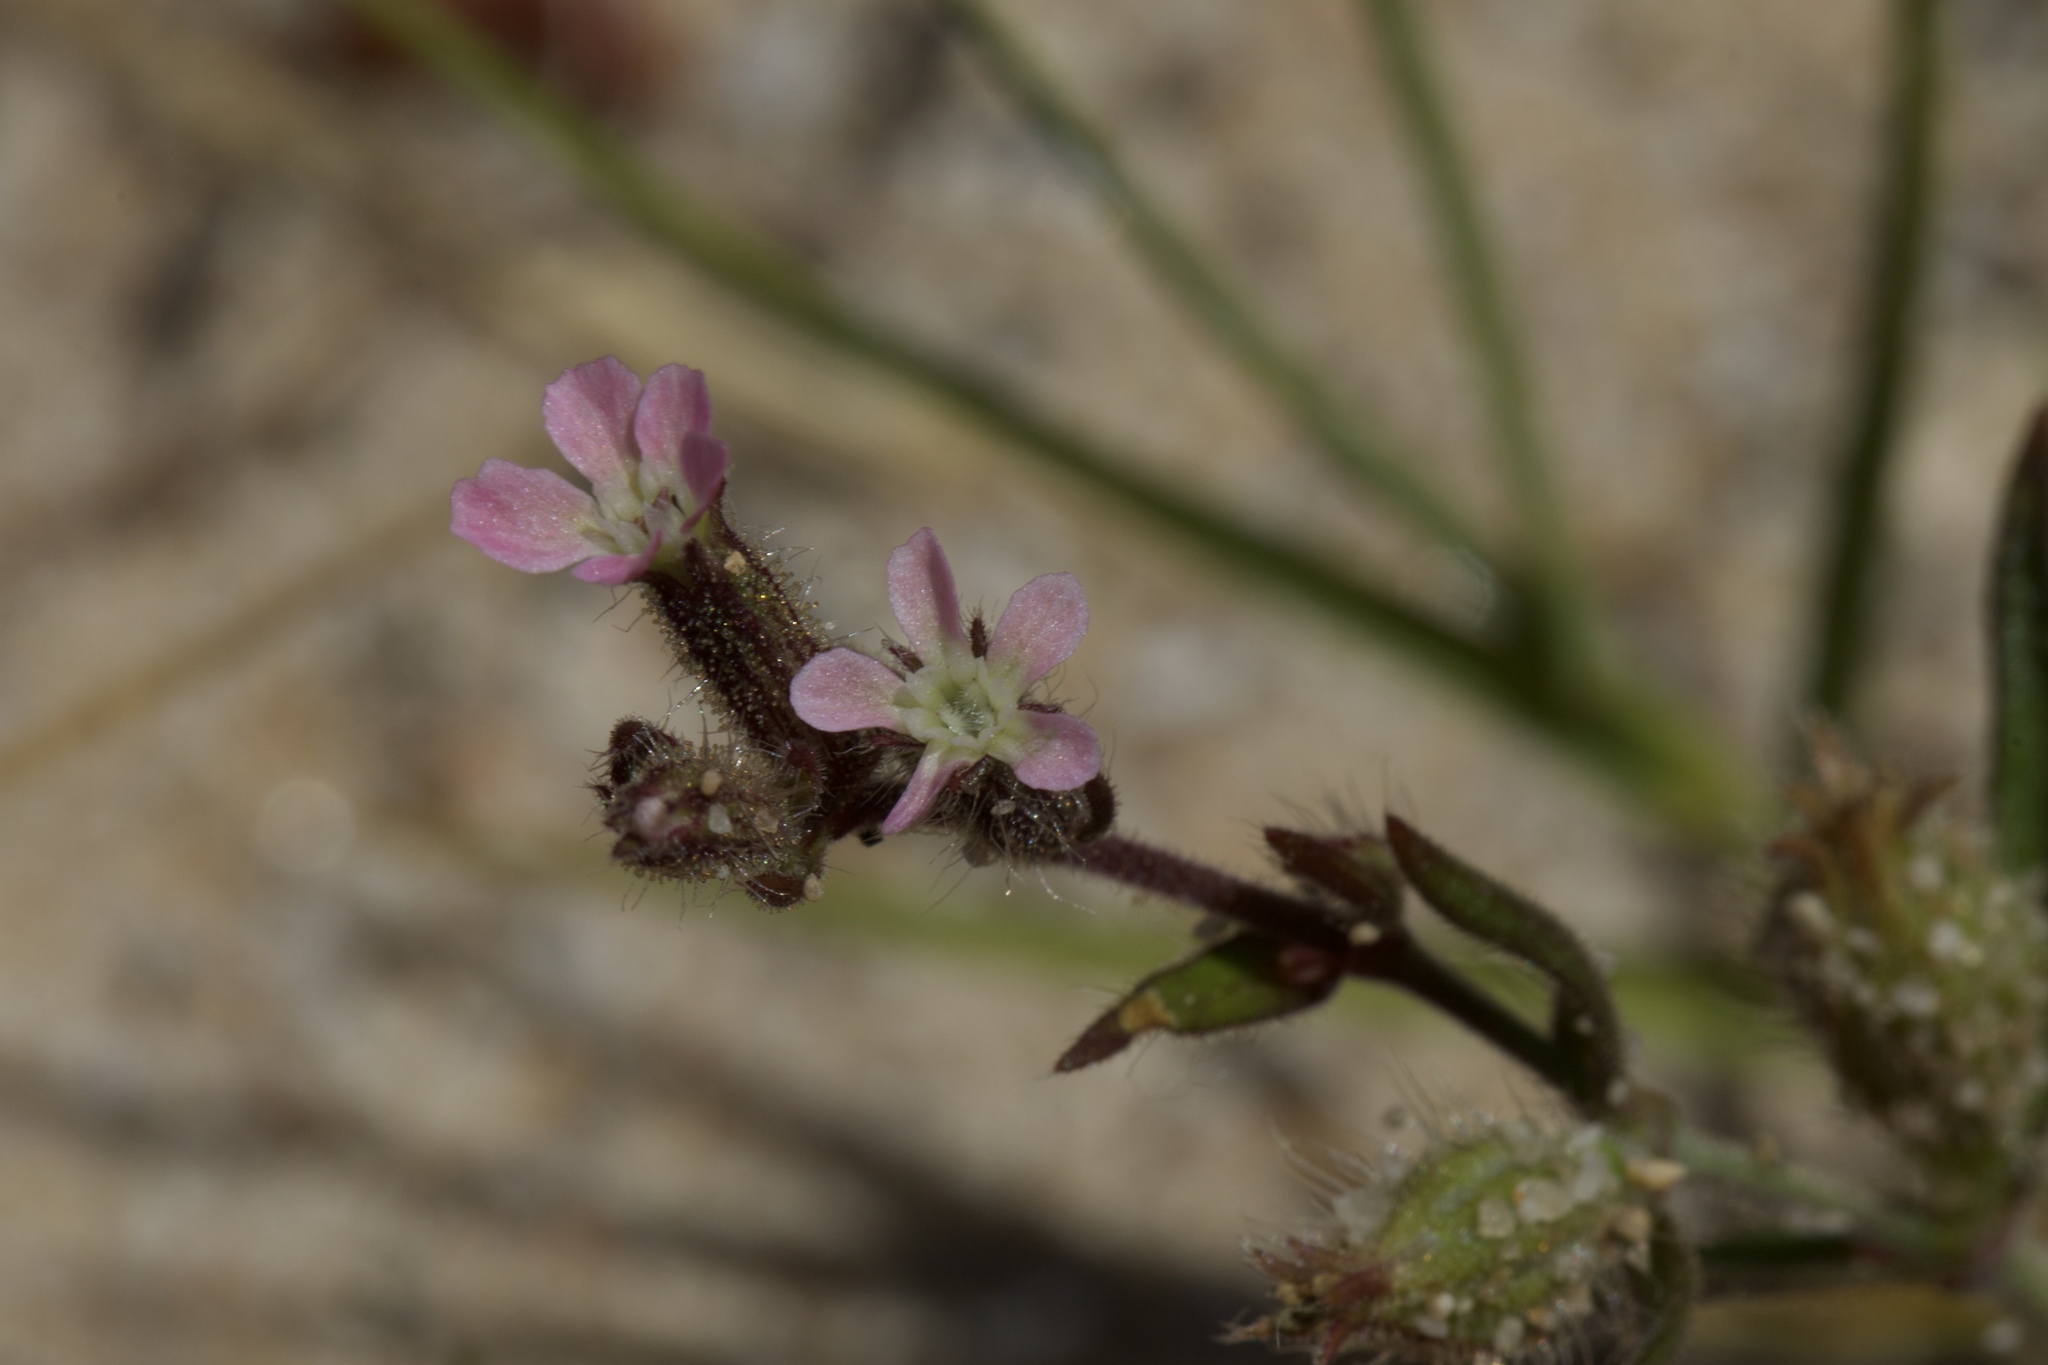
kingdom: Plantae
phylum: Tracheophyta
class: Magnoliopsida
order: Caryophyllales
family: Caryophyllaceae
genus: Silene
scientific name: Silene gallica
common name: Small-flowered catchfly
